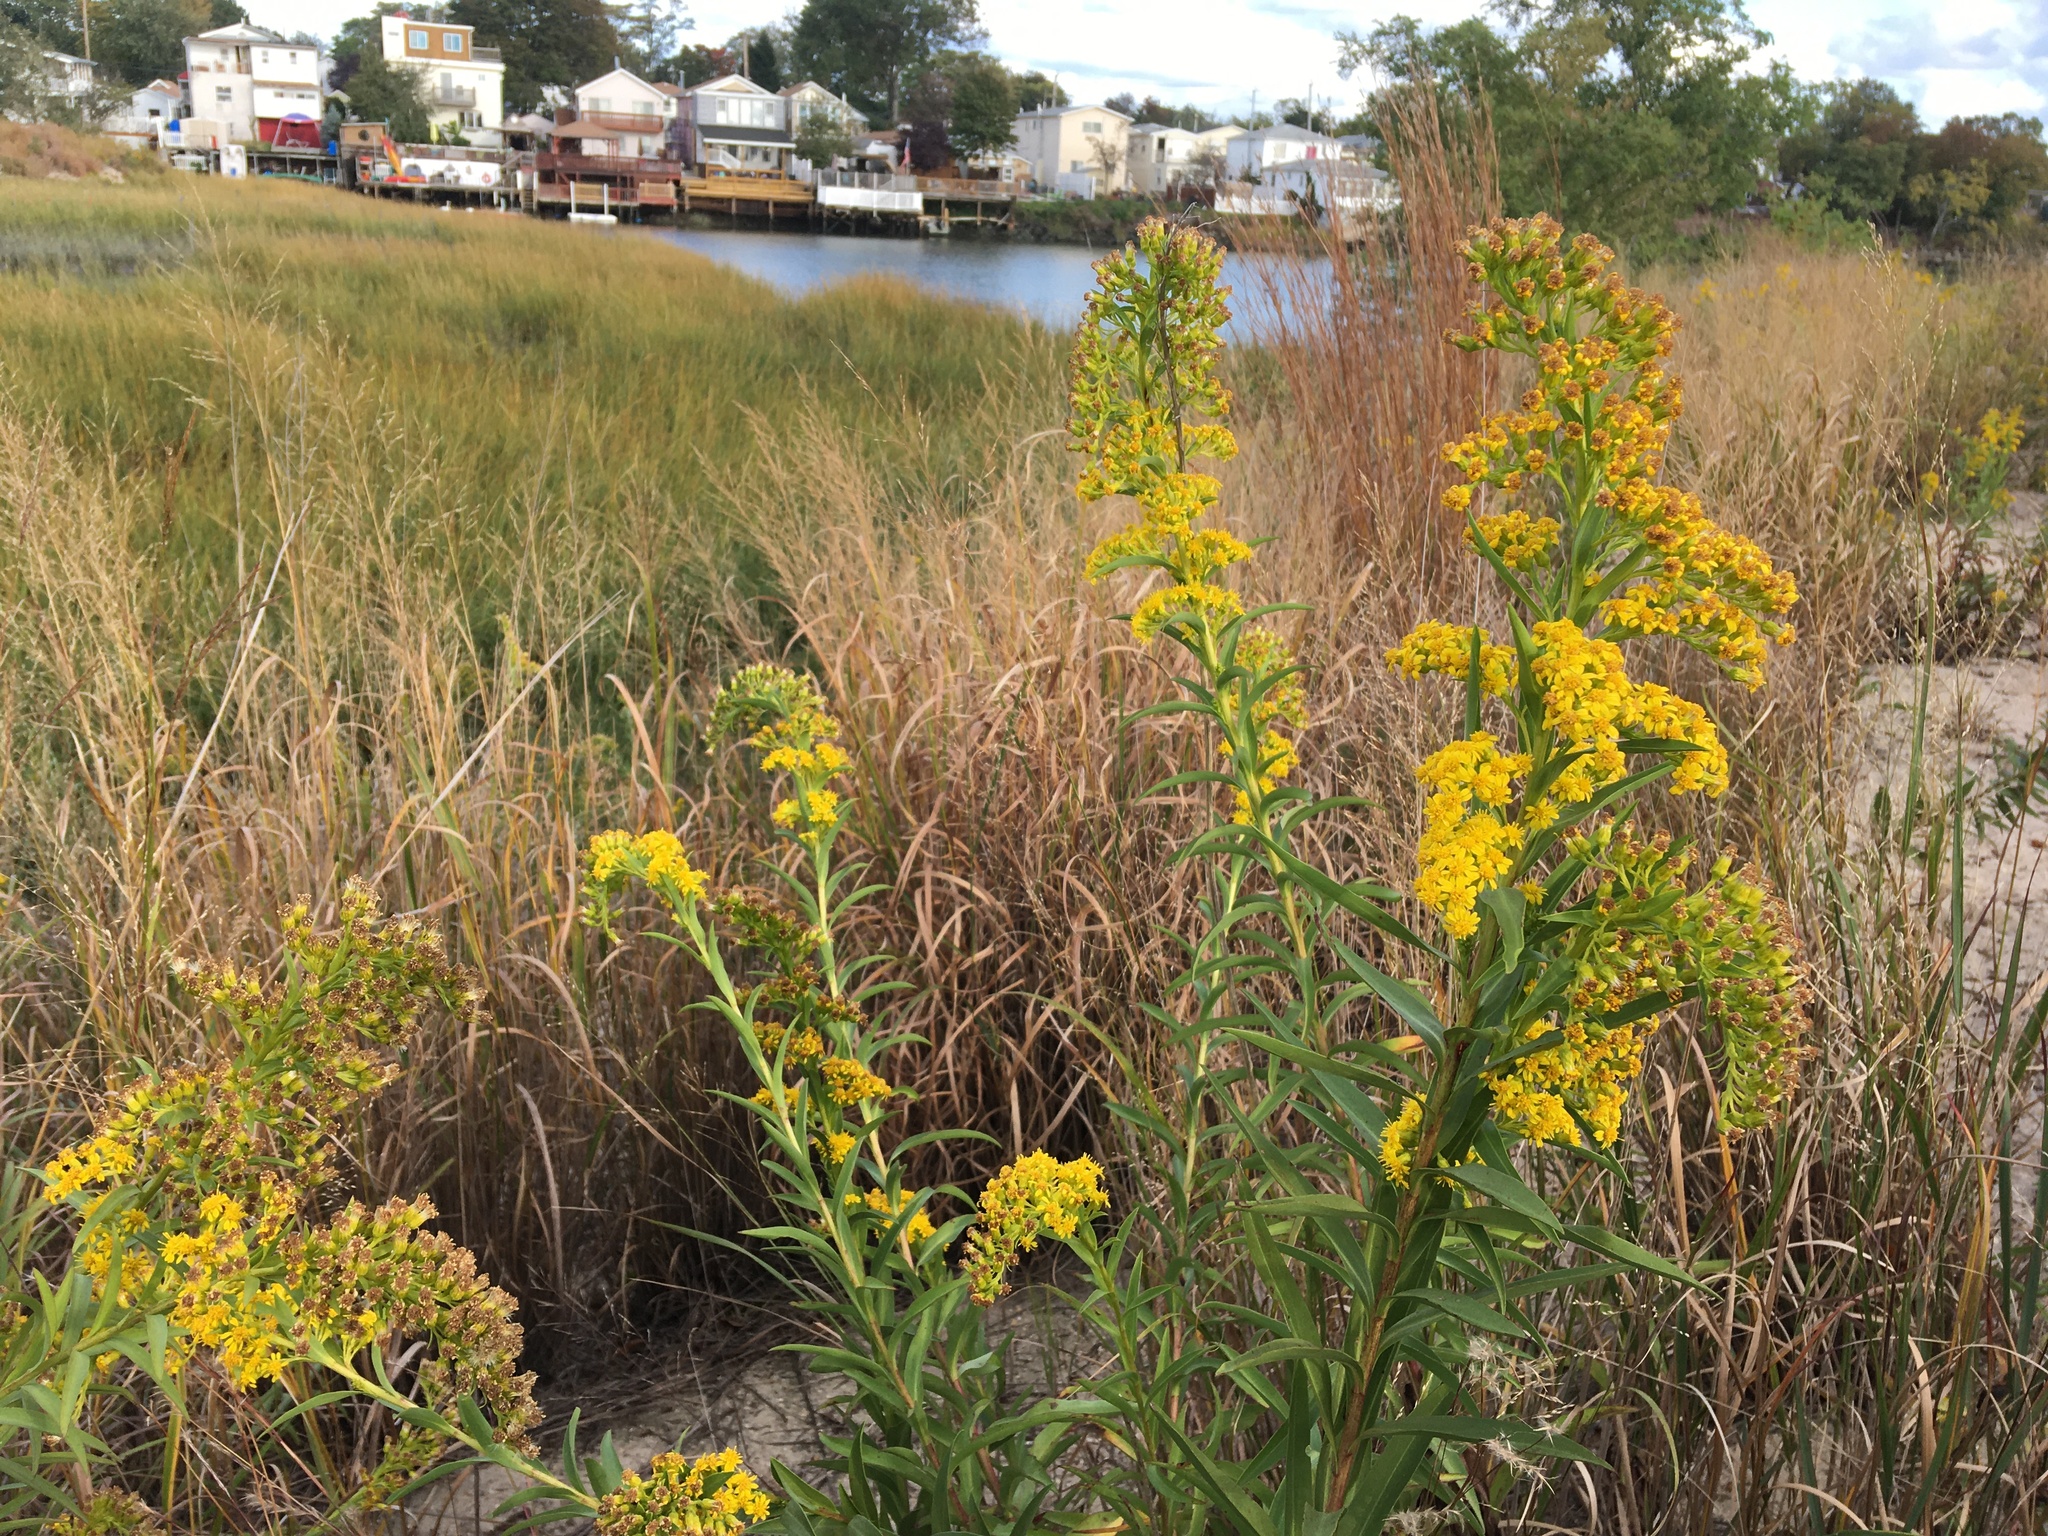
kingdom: Plantae
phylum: Tracheophyta
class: Magnoliopsida
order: Asterales
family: Asteraceae
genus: Solidago
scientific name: Solidago sempervirens
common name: Salt-marsh goldenrod
